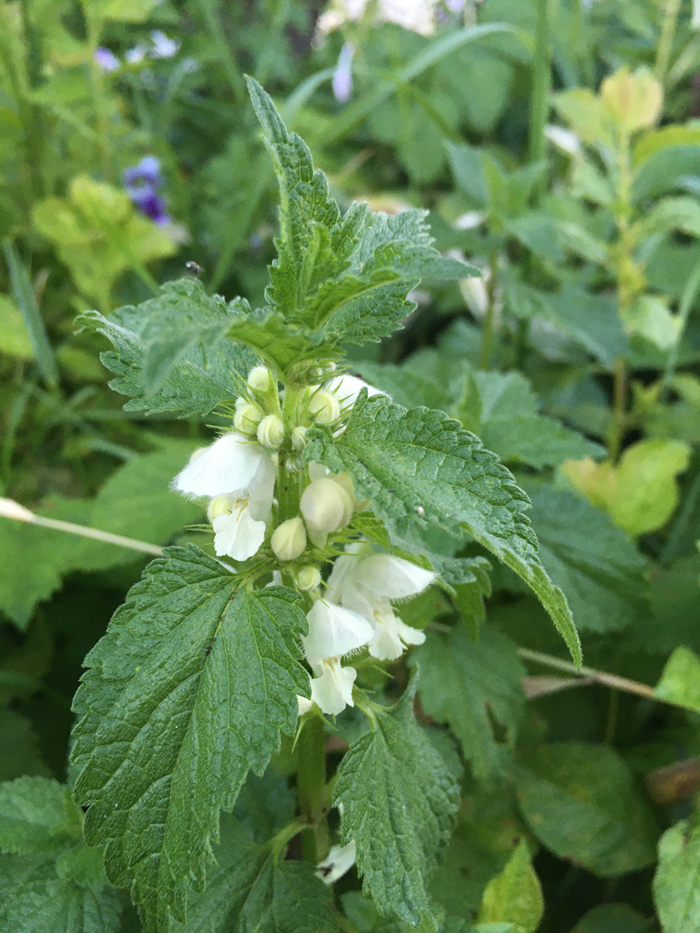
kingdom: Plantae
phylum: Tracheophyta
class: Magnoliopsida
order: Lamiales
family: Lamiaceae
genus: Lamium
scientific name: Lamium album
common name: White dead-nettle
